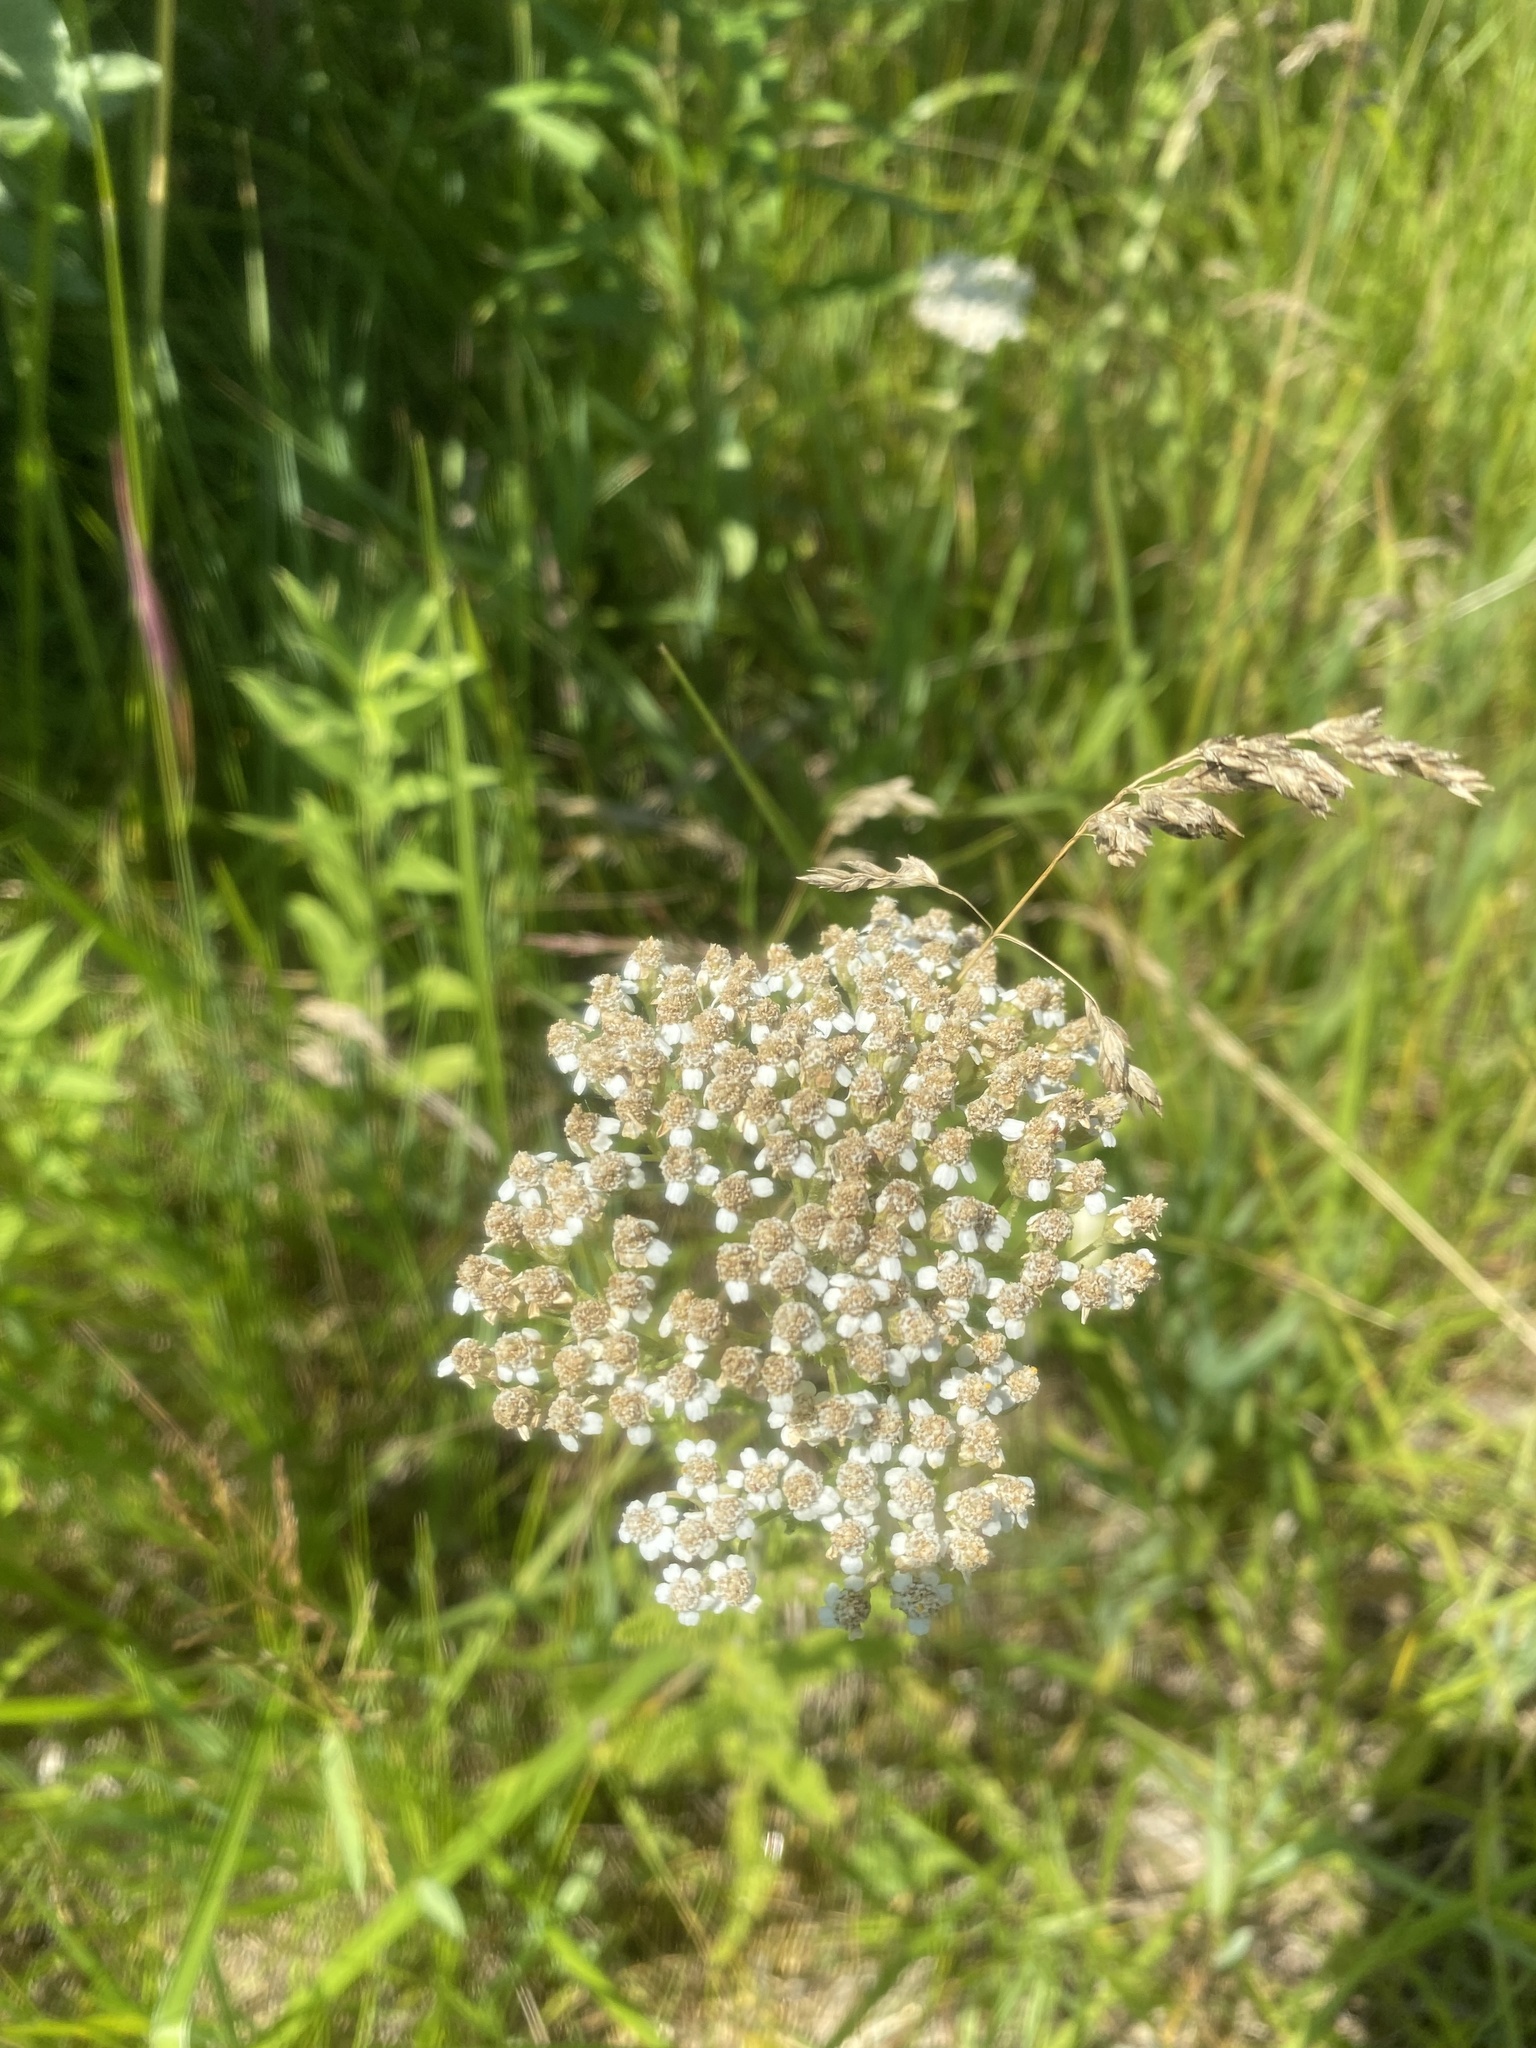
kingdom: Plantae
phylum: Tracheophyta
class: Magnoliopsida
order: Asterales
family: Asteraceae
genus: Achillea
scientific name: Achillea millefolium
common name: Yarrow
